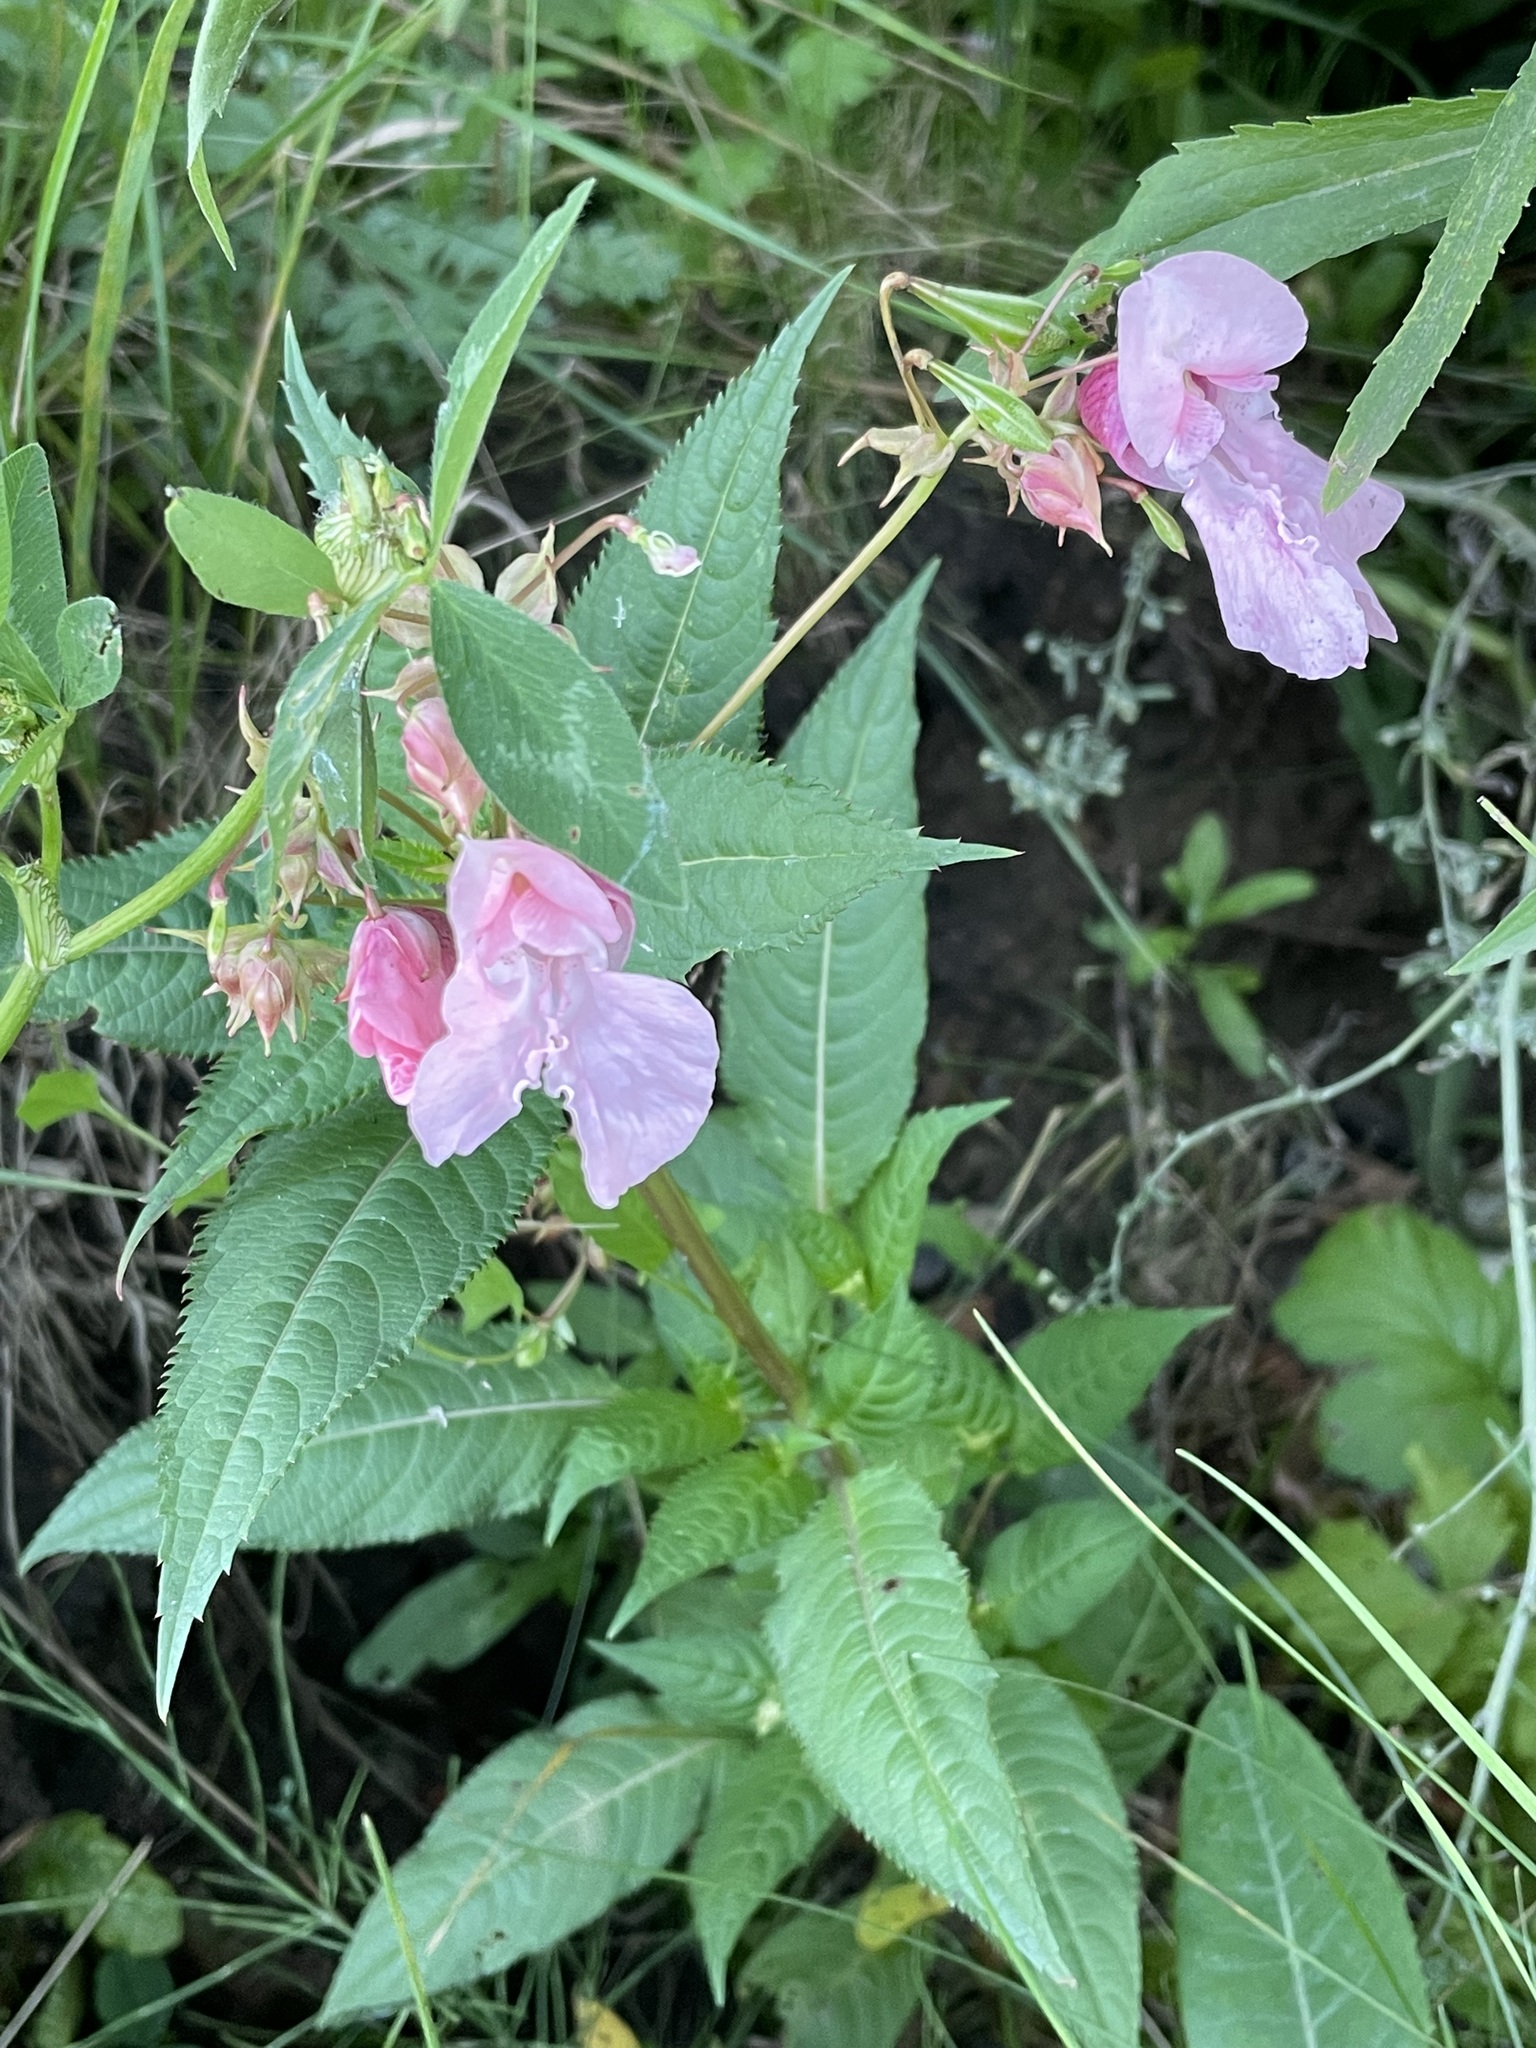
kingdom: Plantae
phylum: Tracheophyta
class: Magnoliopsida
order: Ericales
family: Balsaminaceae
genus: Impatiens
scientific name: Impatiens glandulifera
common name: Himalayan balsam
